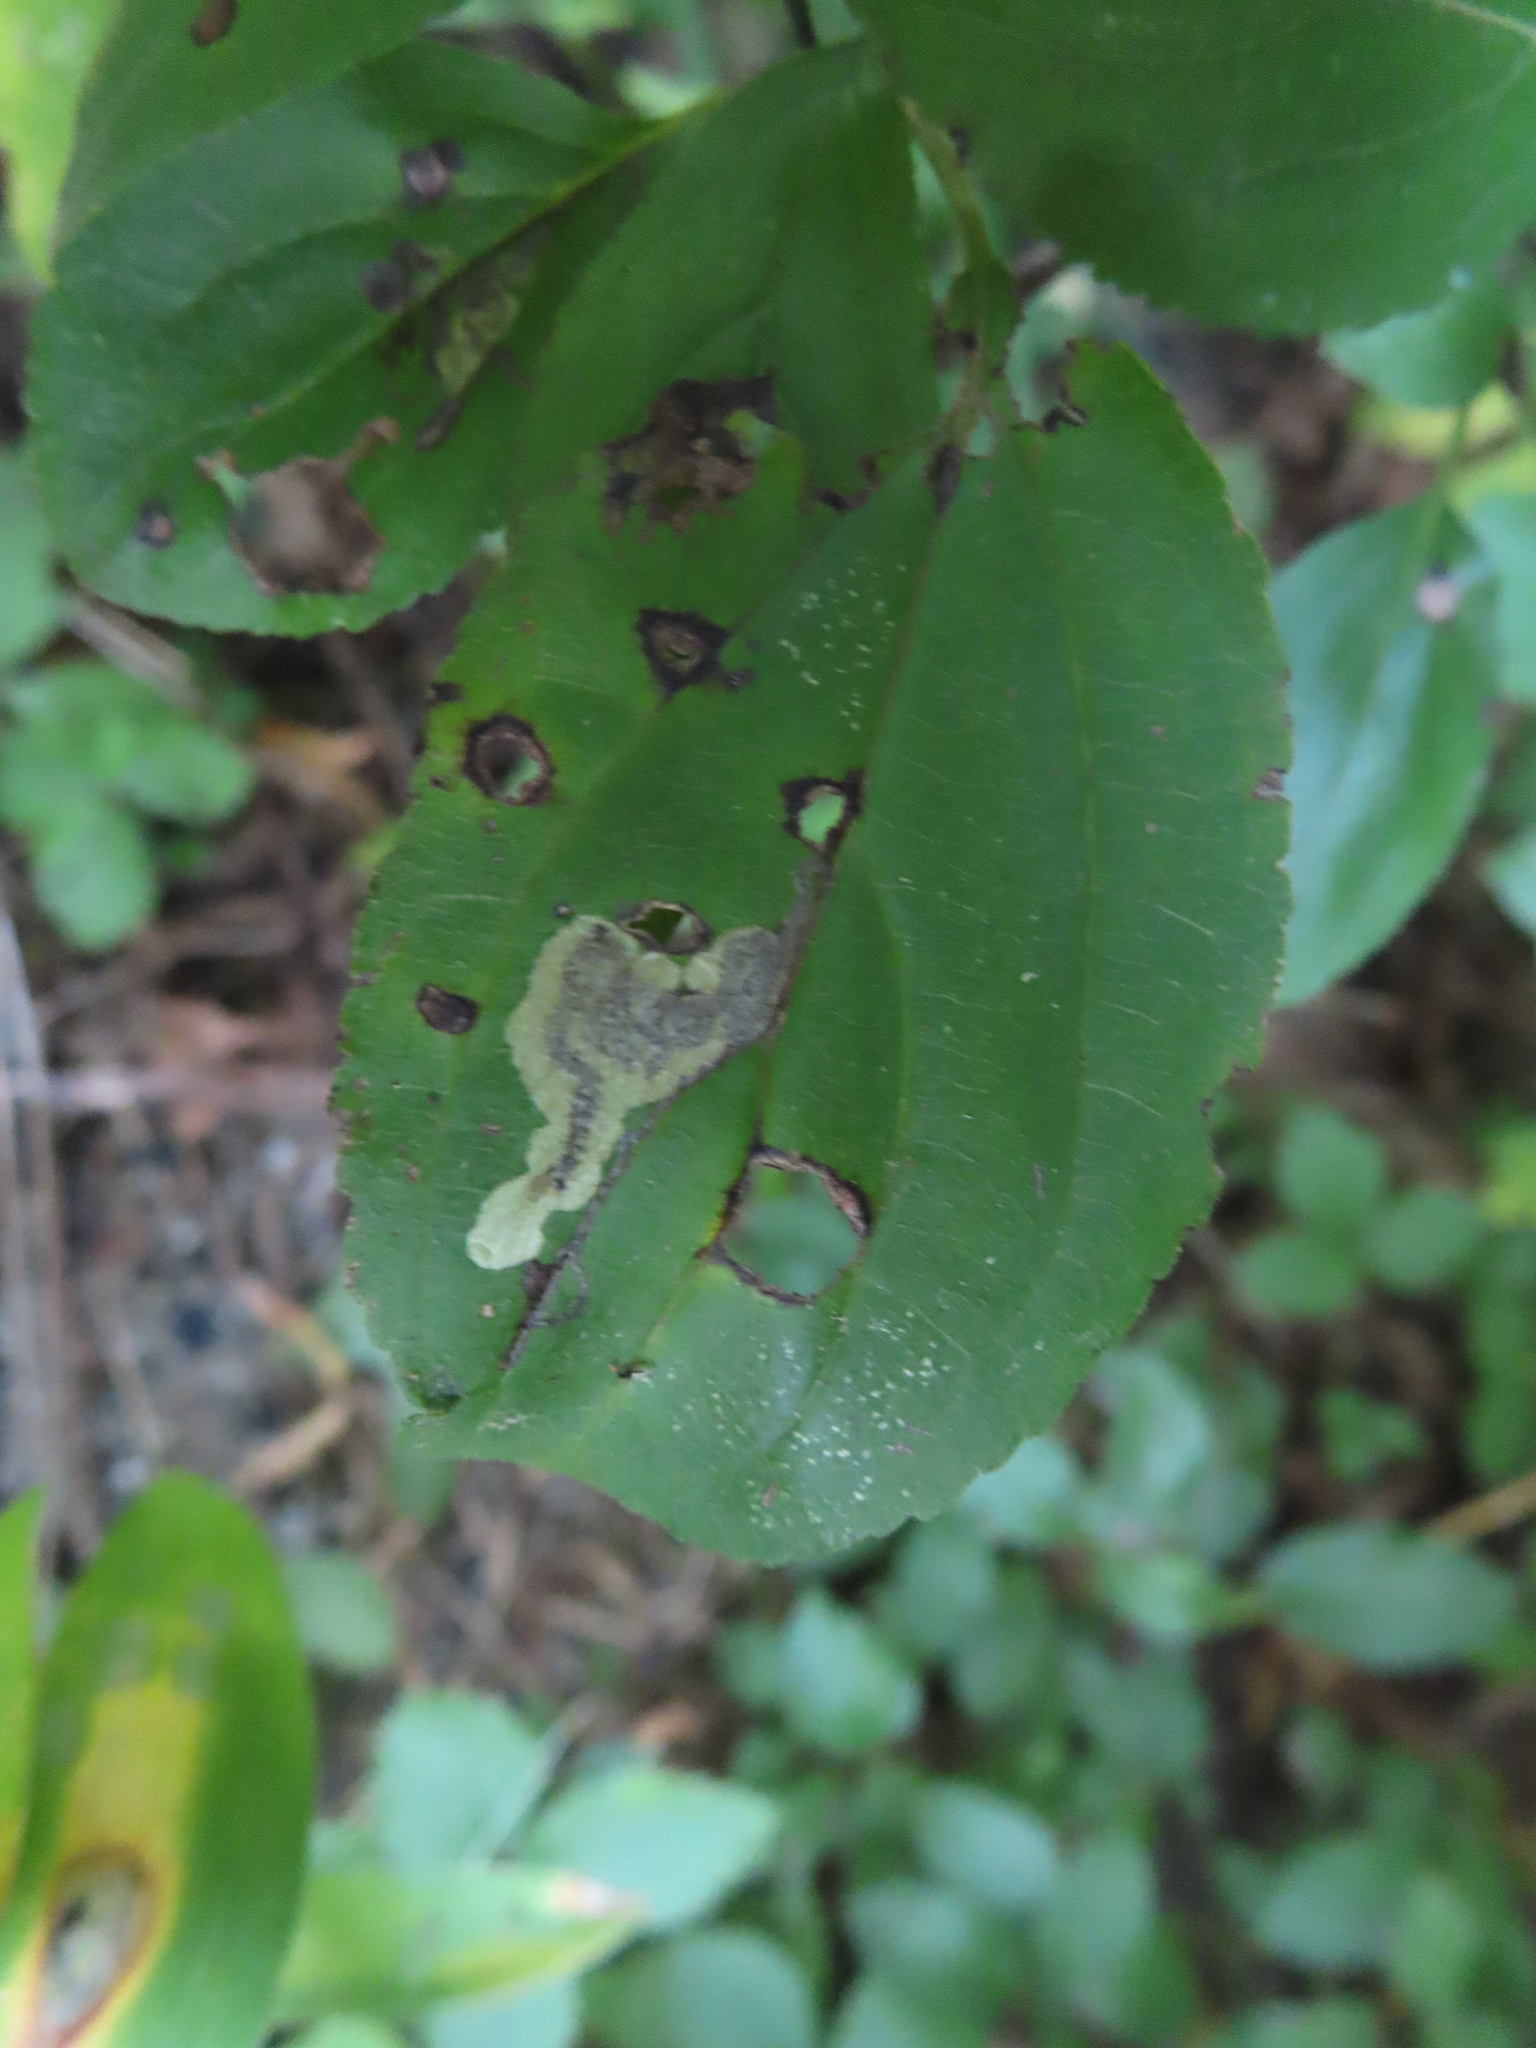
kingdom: Animalia
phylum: Arthropoda
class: Insecta
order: Lepidoptera
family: Nepticulidae
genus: Stigmella
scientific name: Stigmella rhamnicola
